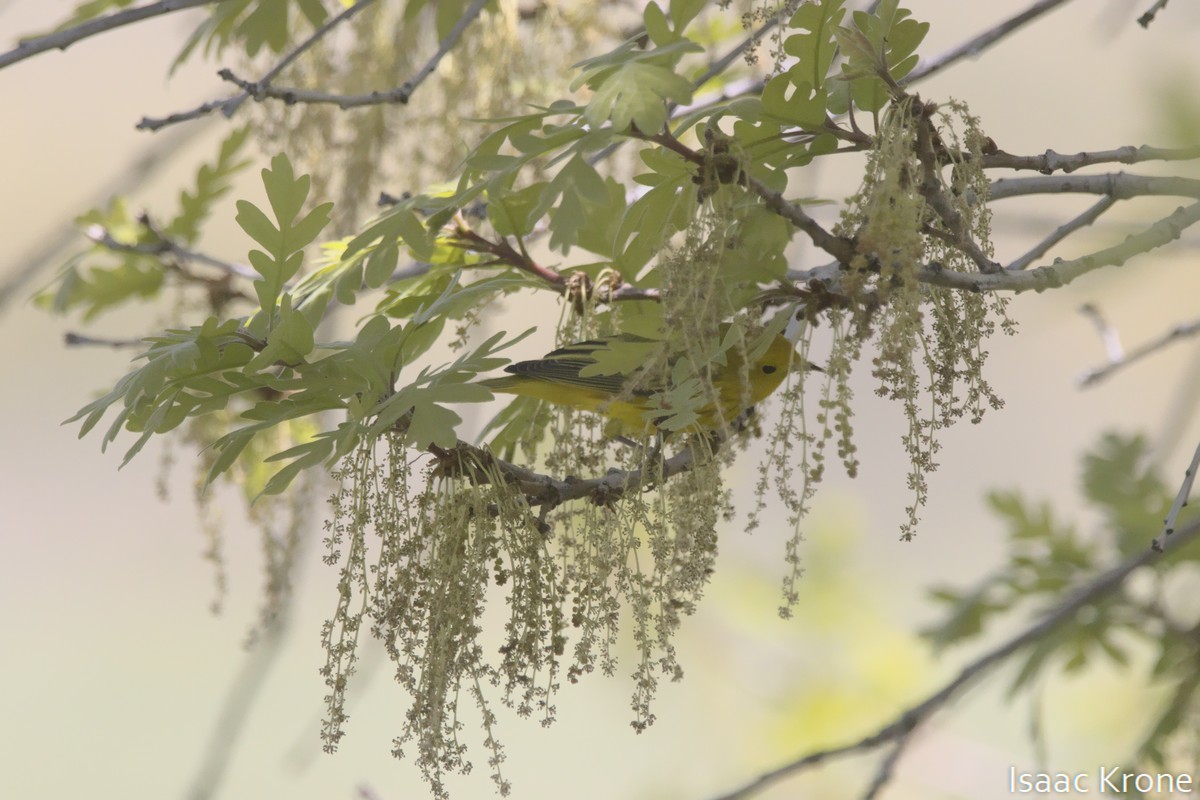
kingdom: Animalia
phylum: Chordata
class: Aves
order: Passeriformes
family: Parulidae
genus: Setophaga
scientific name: Setophaga petechia
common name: Yellow warbler
